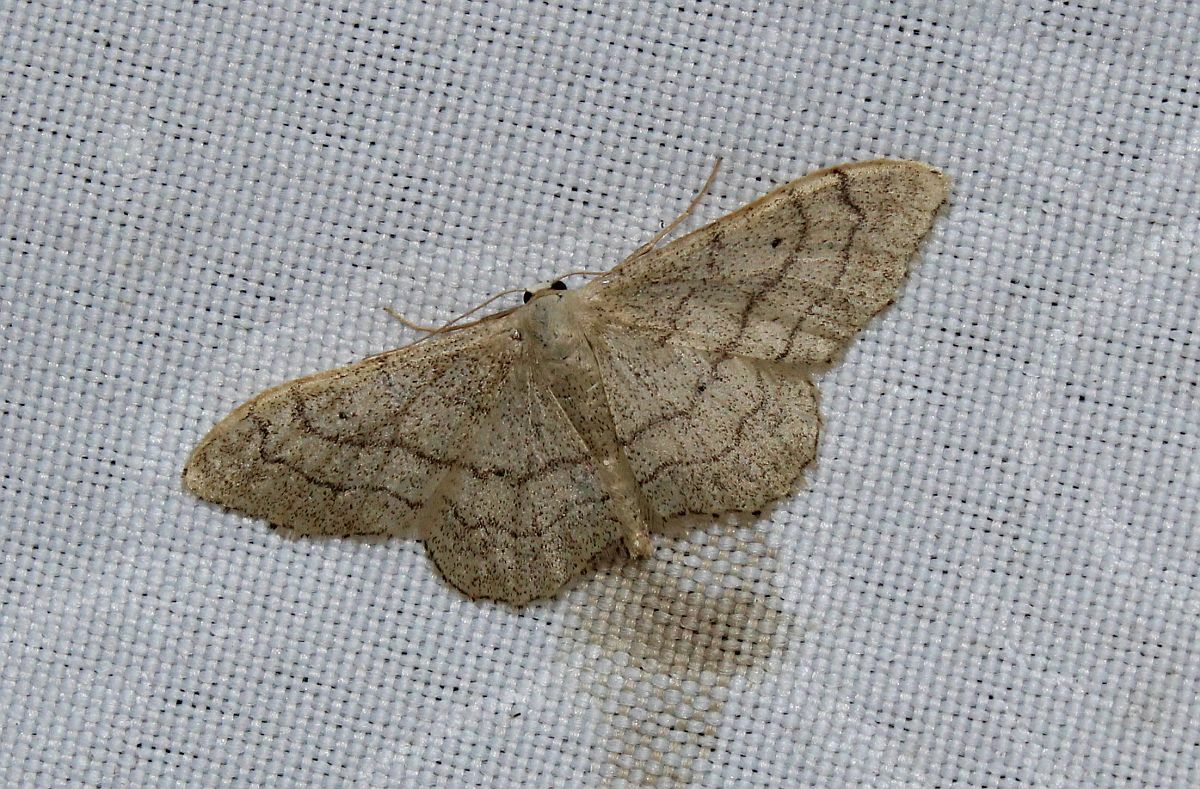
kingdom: Animalia
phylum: Arthropoda
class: Insecta
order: Lepidoptera
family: Geometridae
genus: Idaea
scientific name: Idaea aversata
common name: Riband wave
